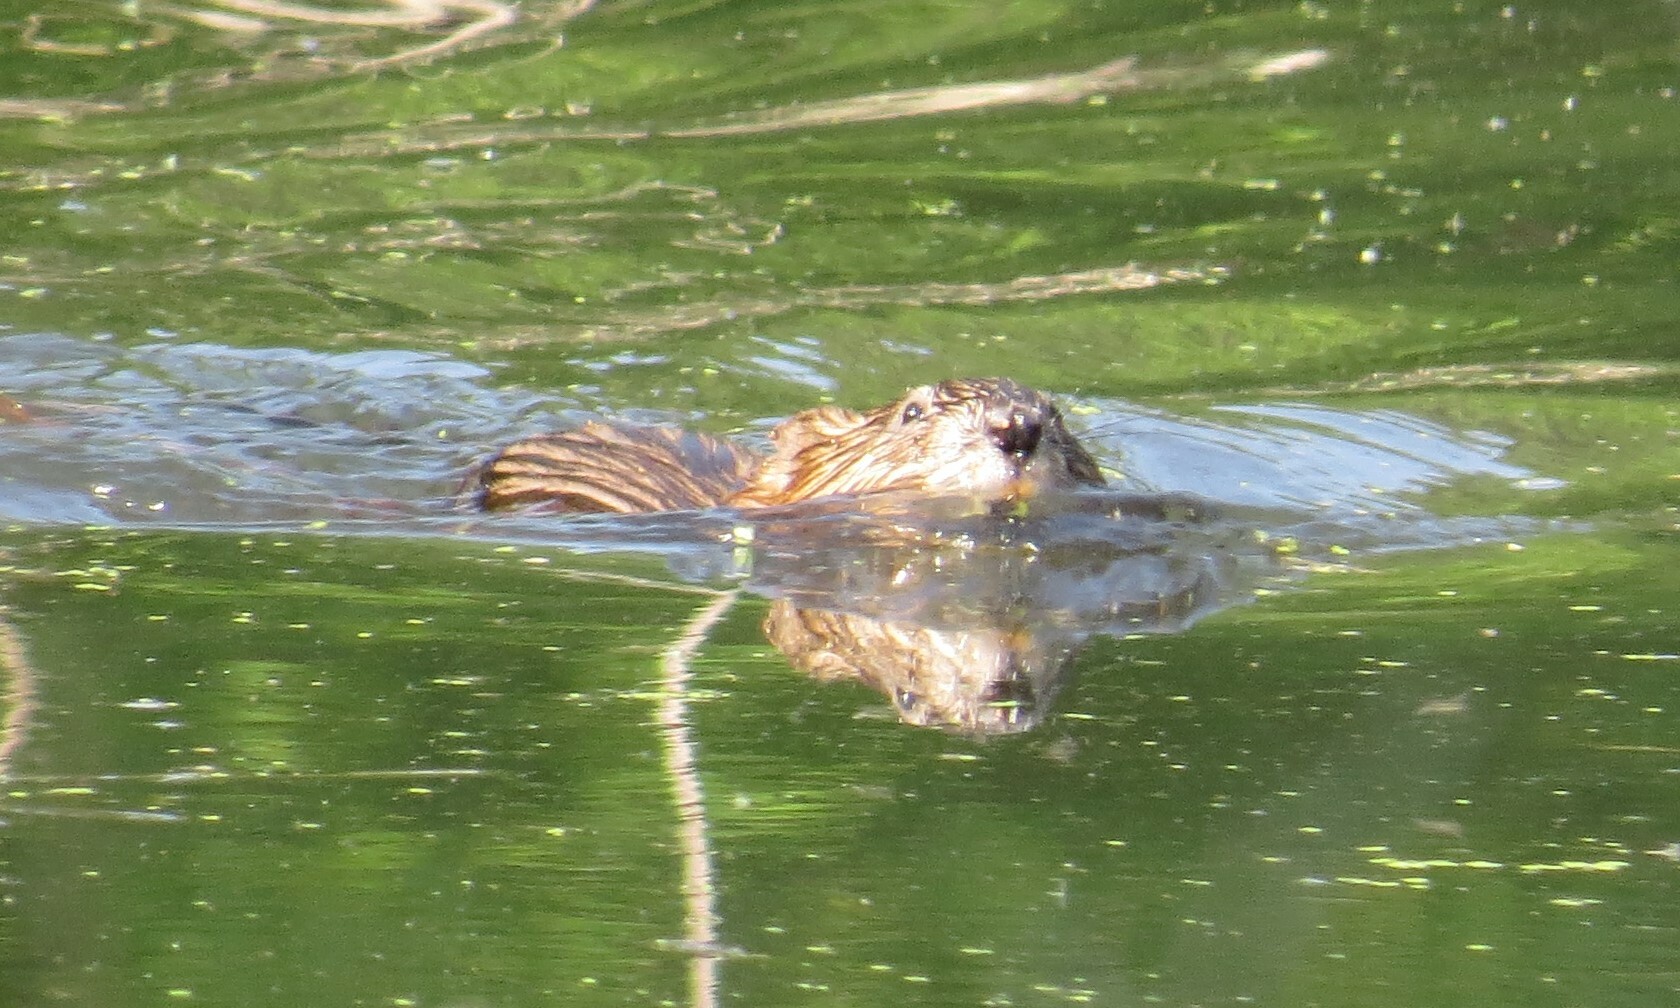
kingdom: Animalia
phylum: Chordata
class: Mammalia
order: Rodentia
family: Cricetidae
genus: Ondatra
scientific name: Ondatra zibethicus
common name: Muskrat
